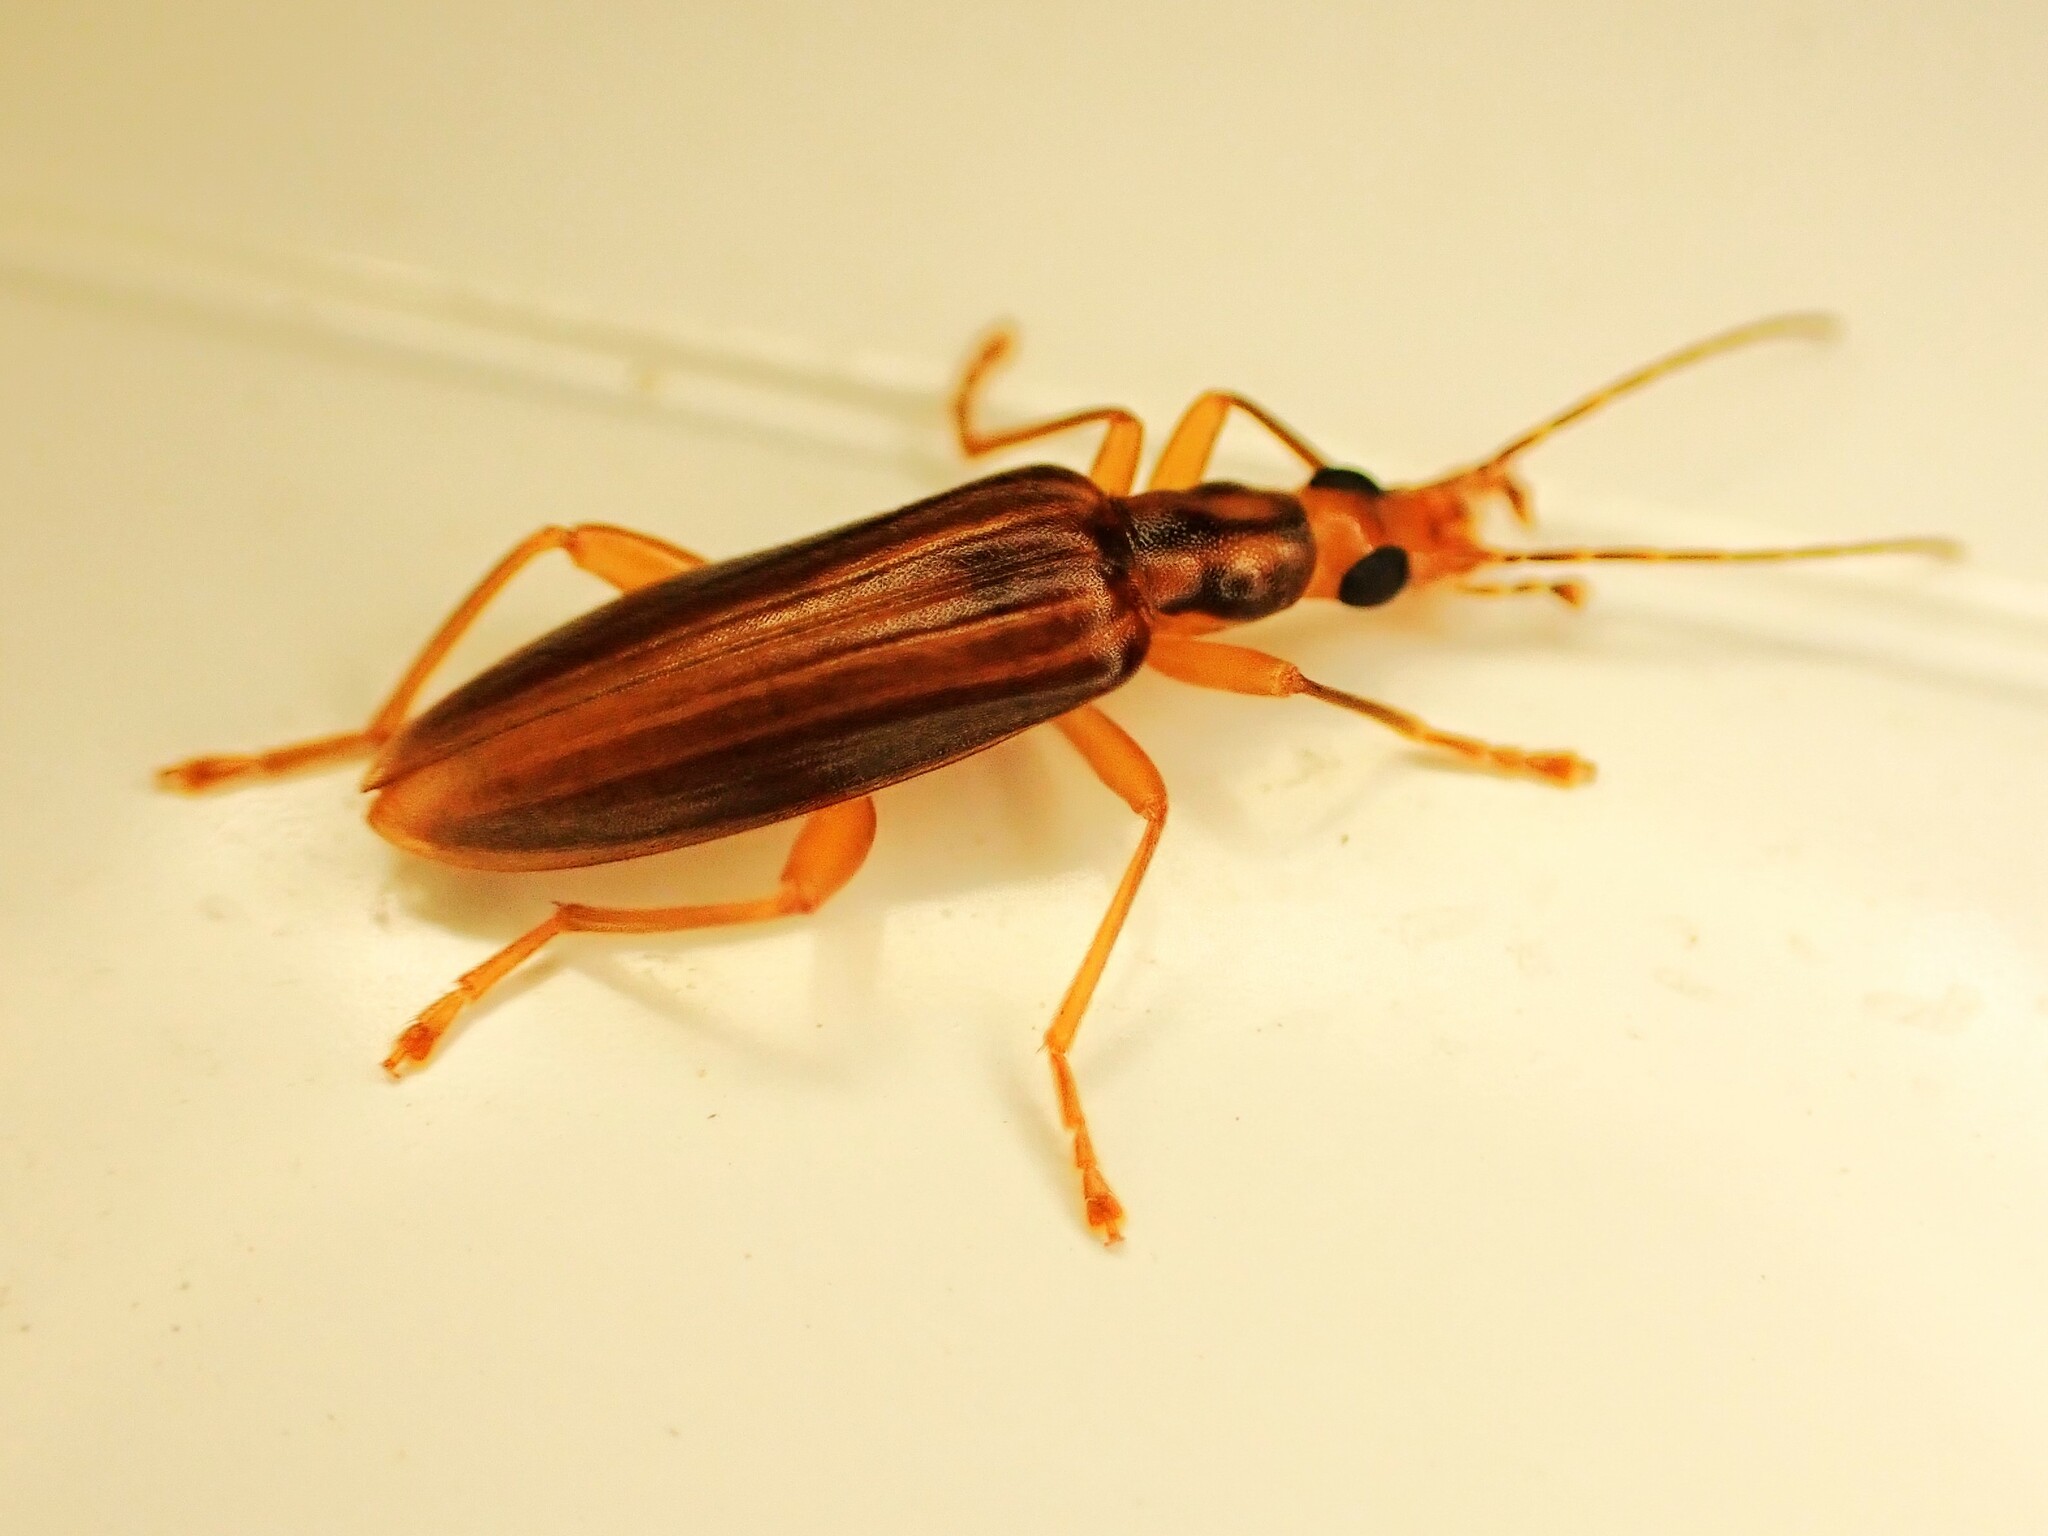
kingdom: Animalia
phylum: Arthropoda
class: Insecta
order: Coleoptera
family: Oedemeridae
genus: Thelyphassa
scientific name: Thelyphassa
